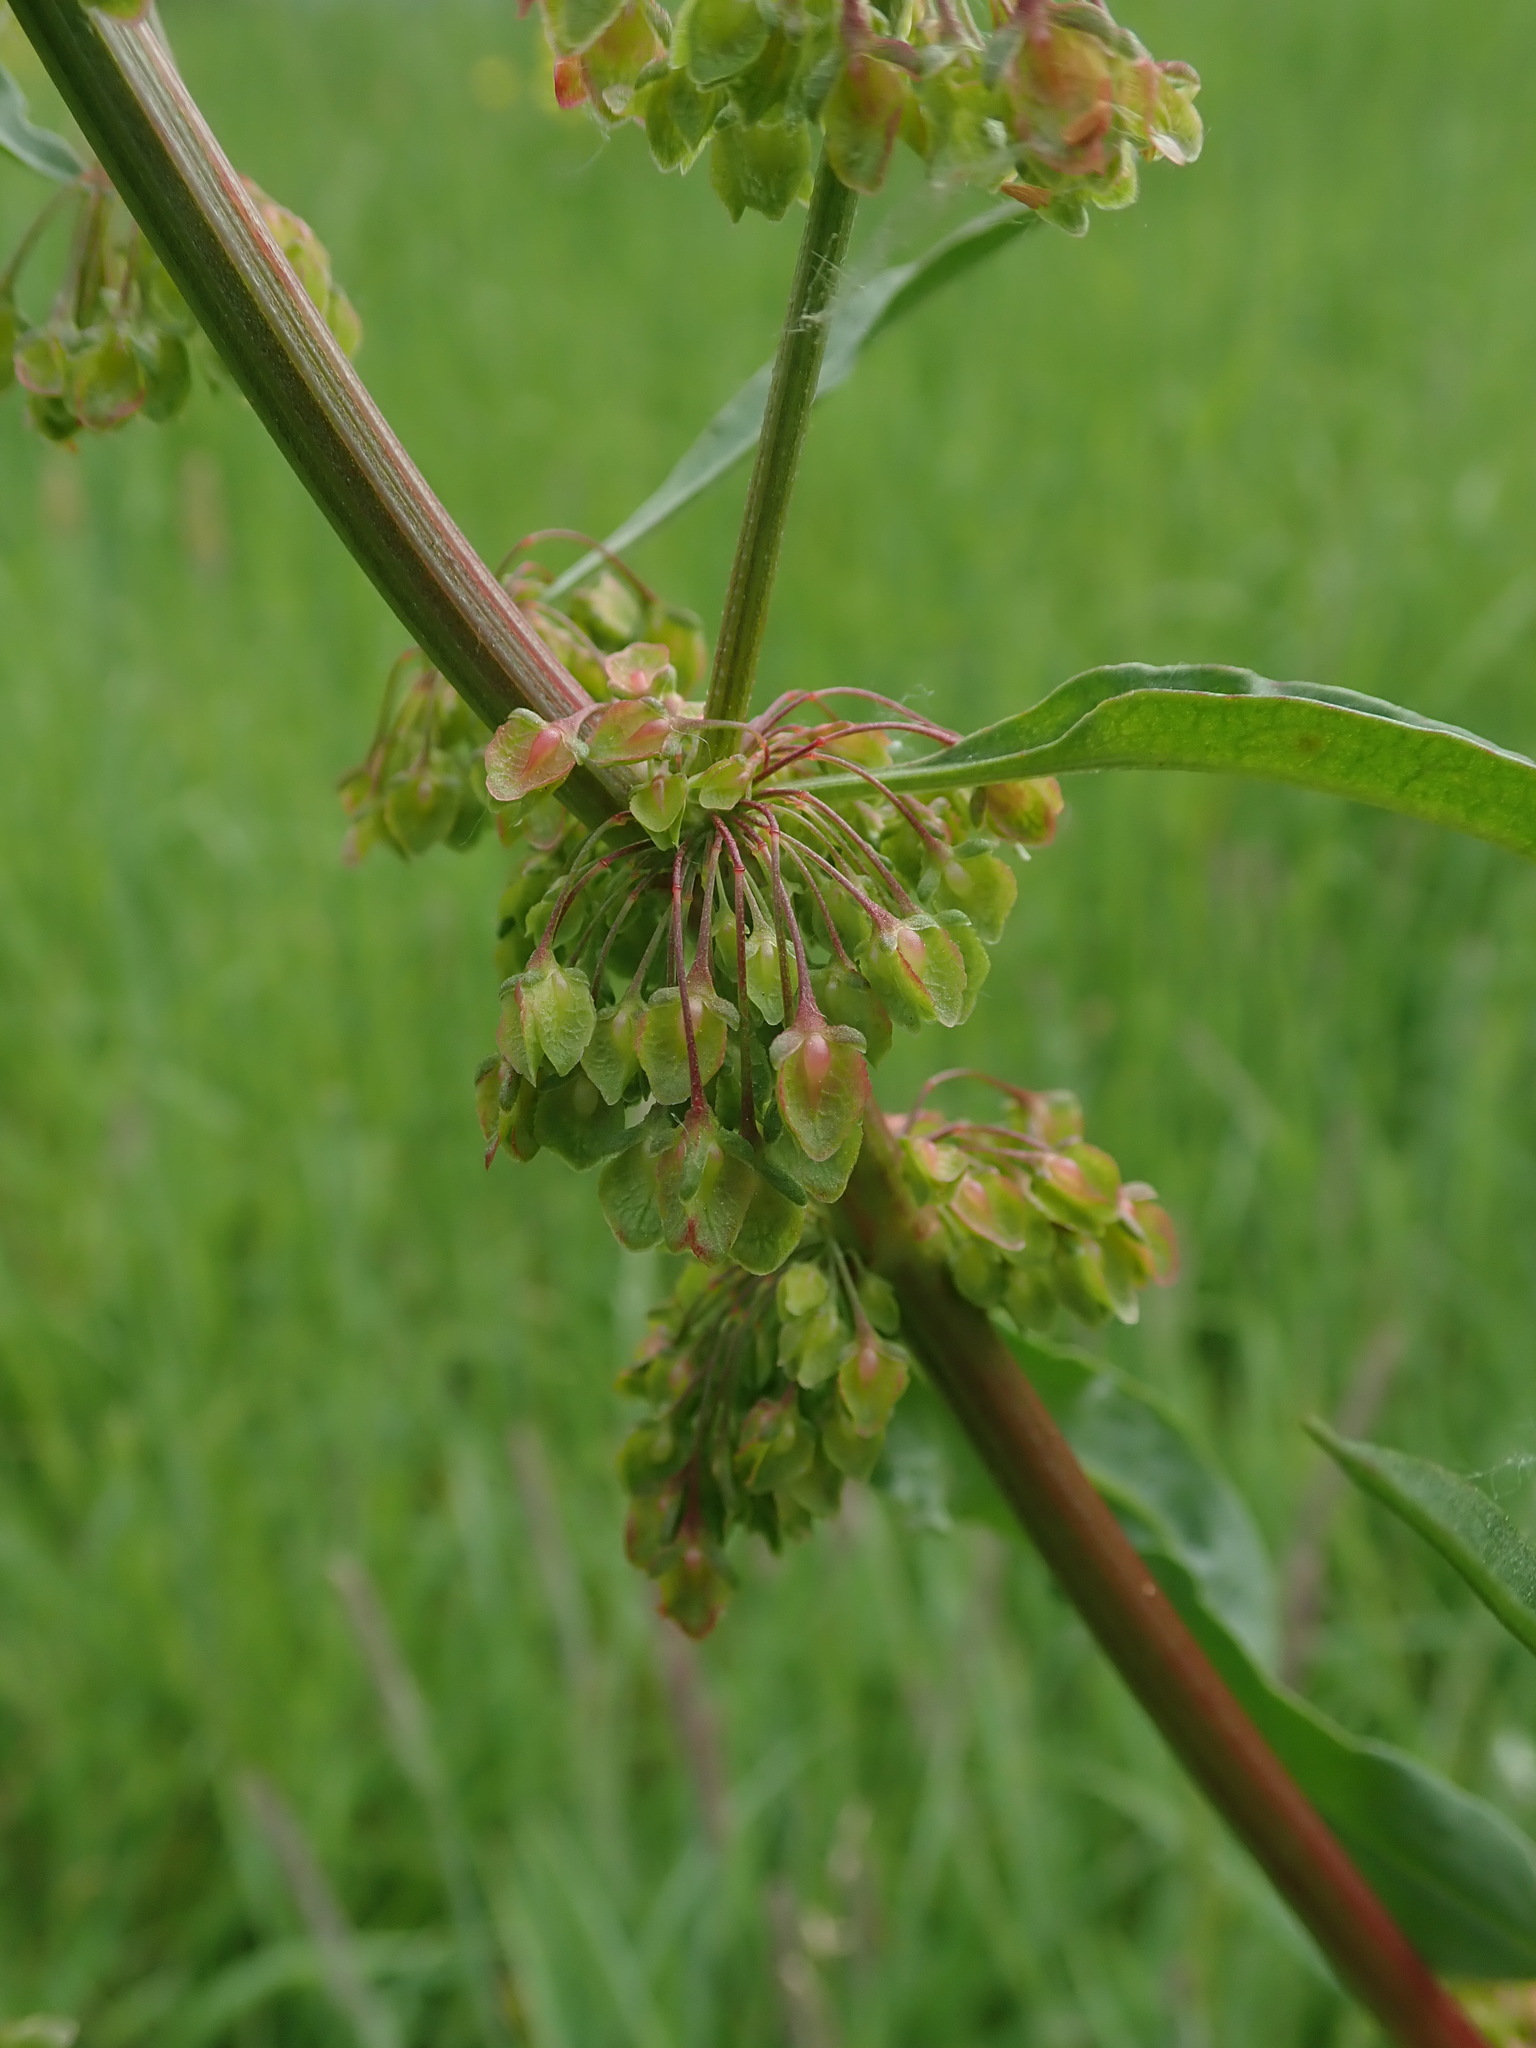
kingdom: Plantae
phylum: Tracheophyta
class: Magnoliopsida
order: Caryophyllales
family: Polygonaceae
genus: Rumex
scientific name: Rumex crispus
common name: Curled dock
